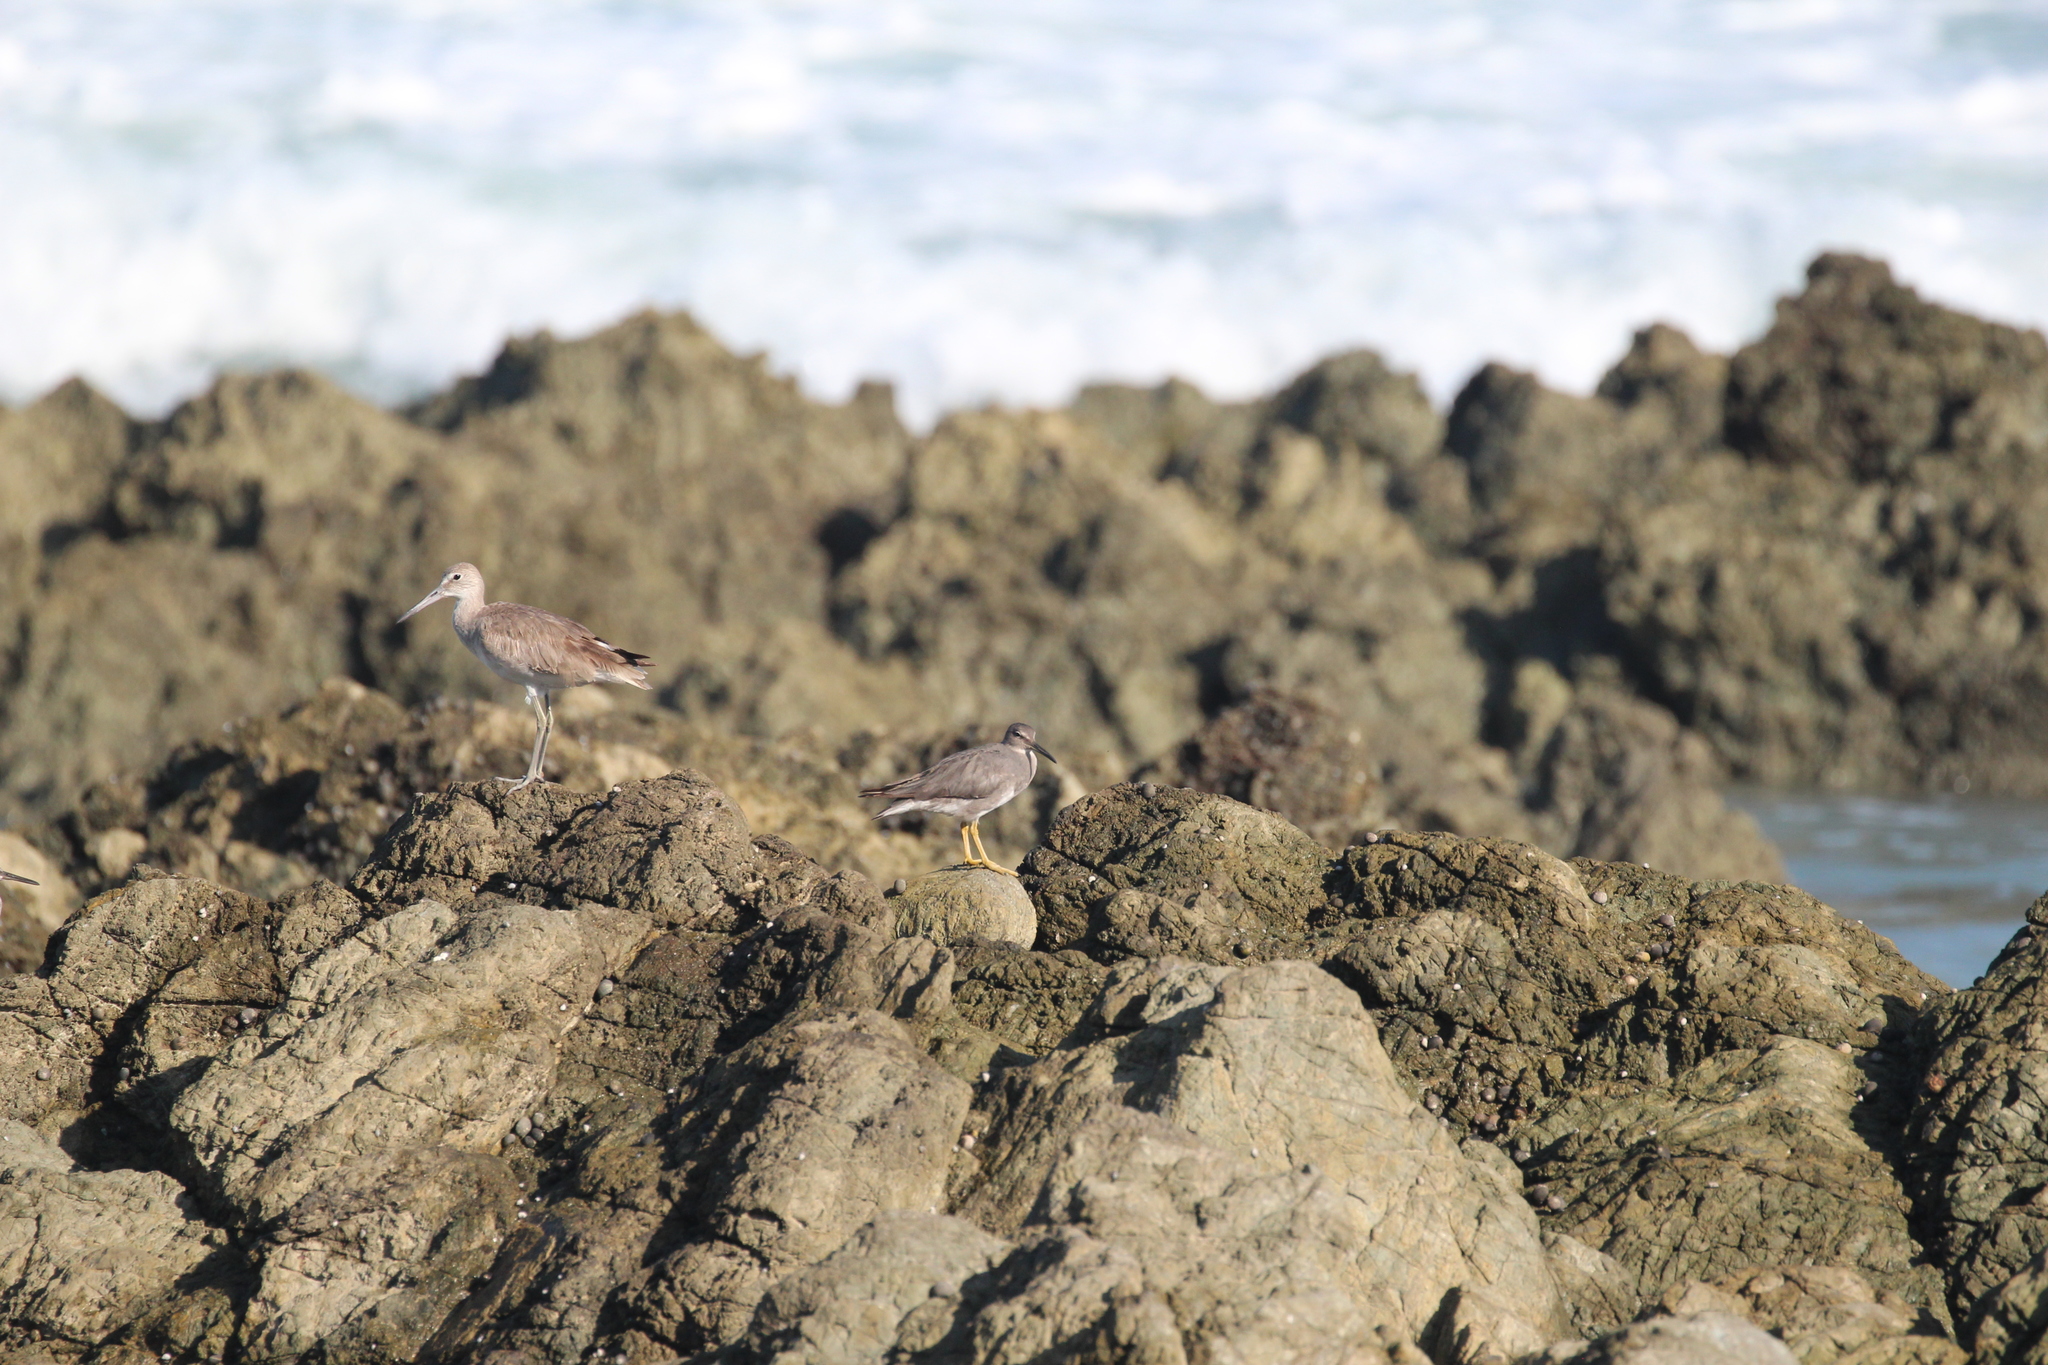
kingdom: Animalia
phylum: Chordata
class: Aves
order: Charadriiformes
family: Scolopacidae
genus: Tringa
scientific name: Tringa semipalmata
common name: Willet
